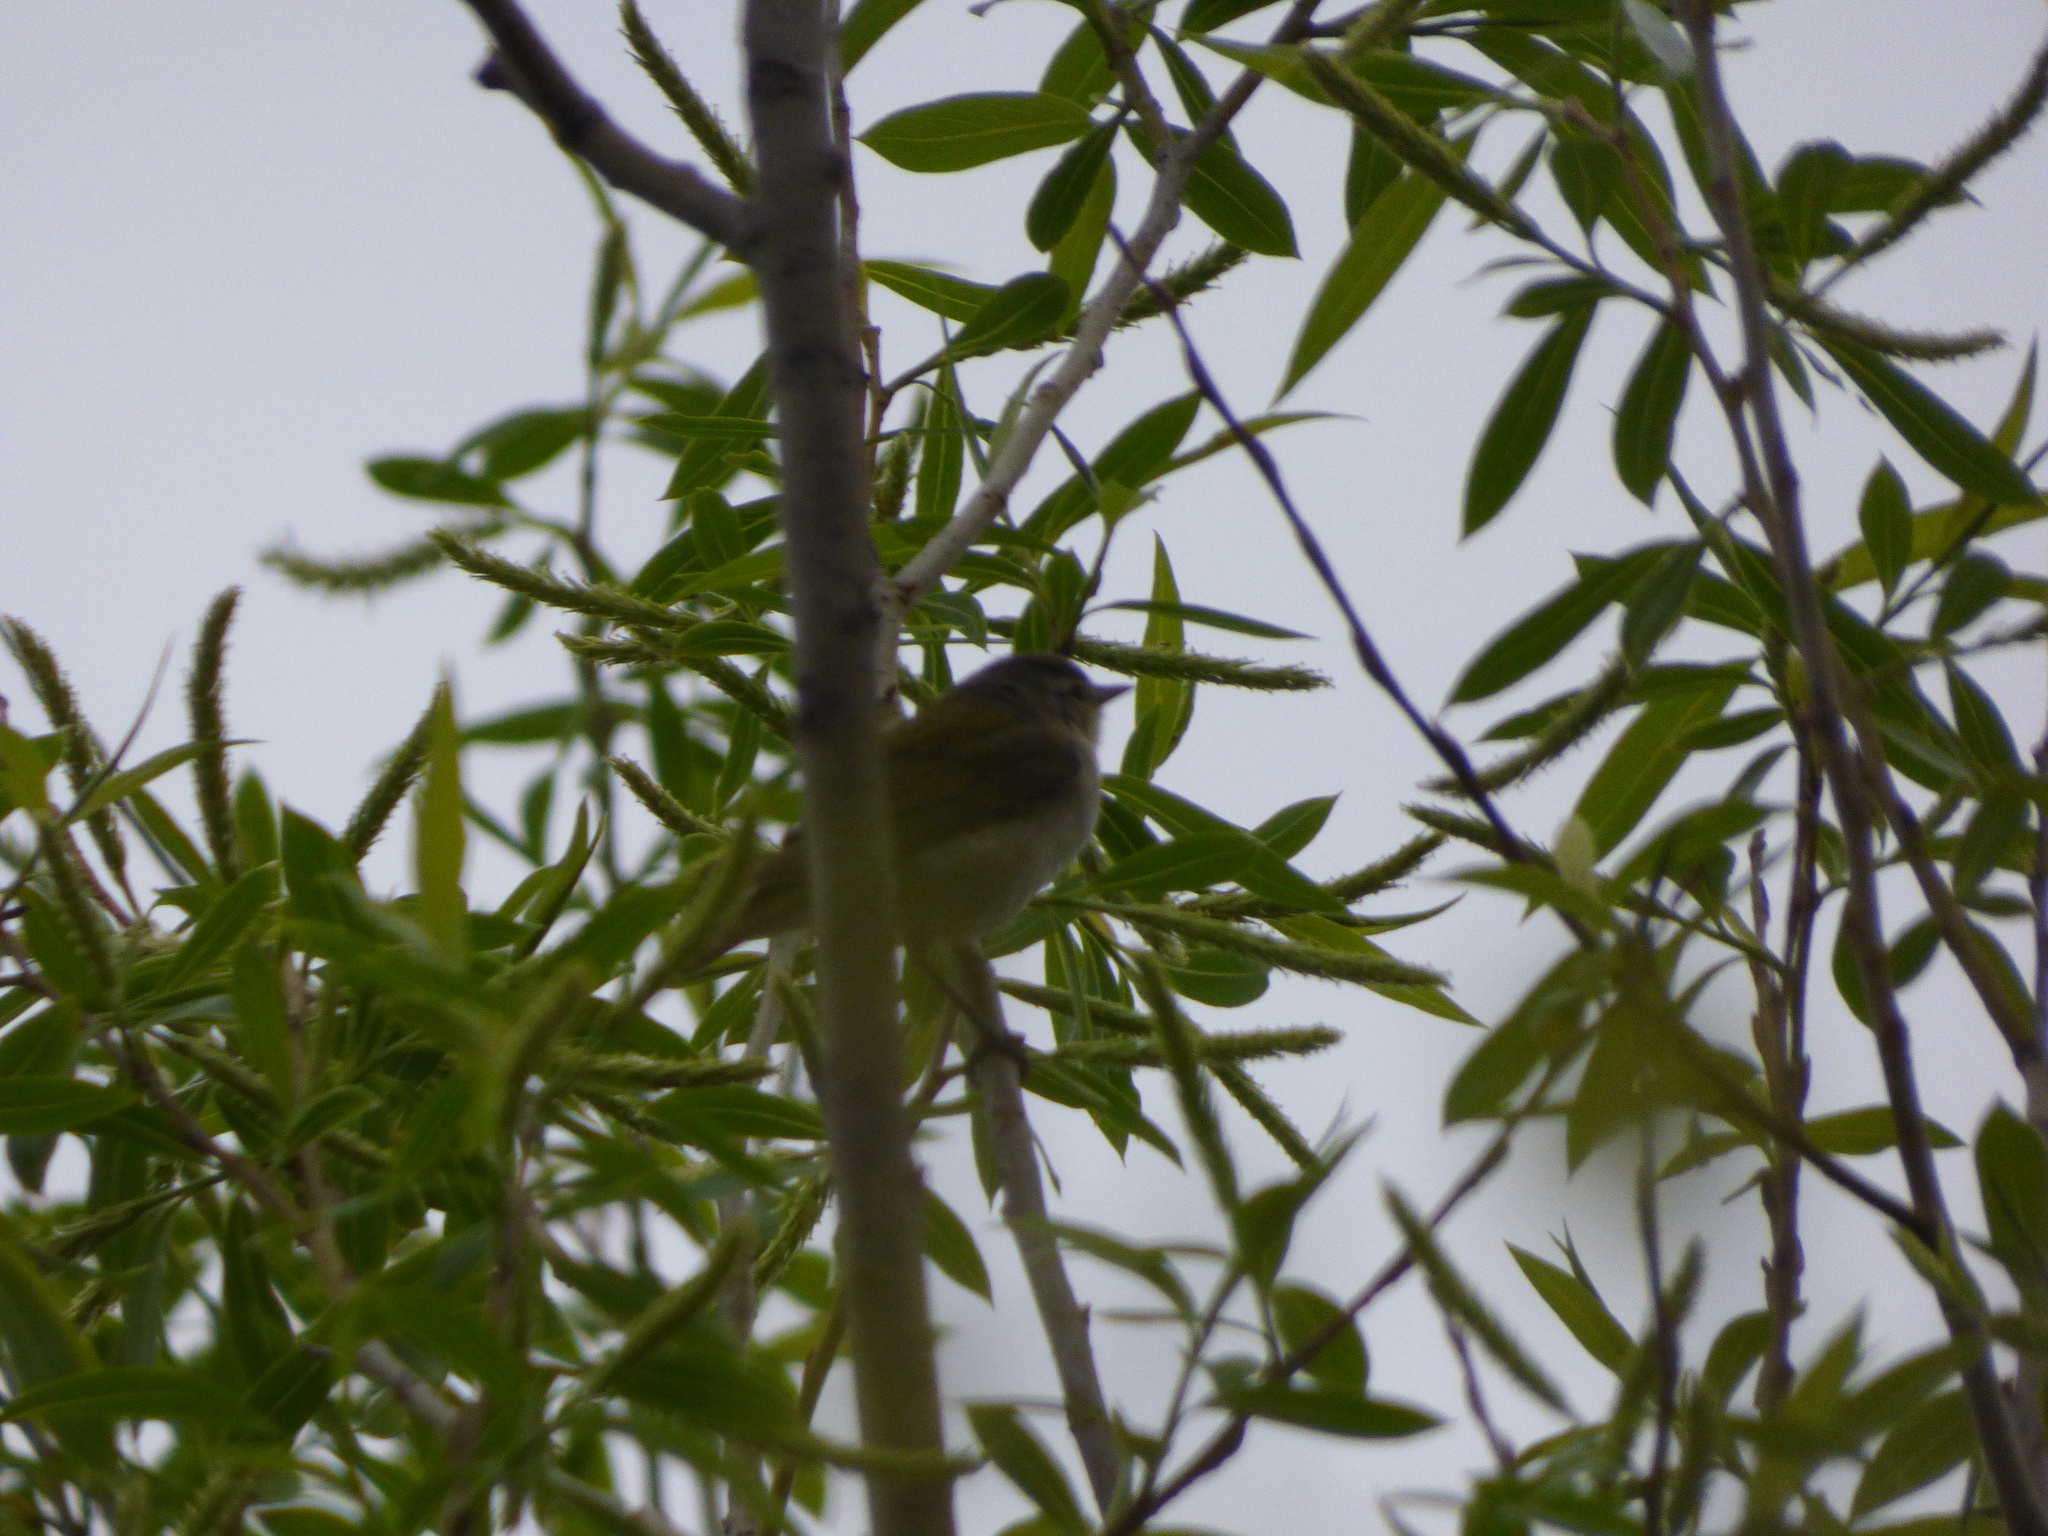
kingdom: Animalia
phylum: Chordata
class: Aves
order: Passeriformes
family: Parulidae
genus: Leiothlypis
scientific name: Leiothlypis peregrina
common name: Tennessee warbler
